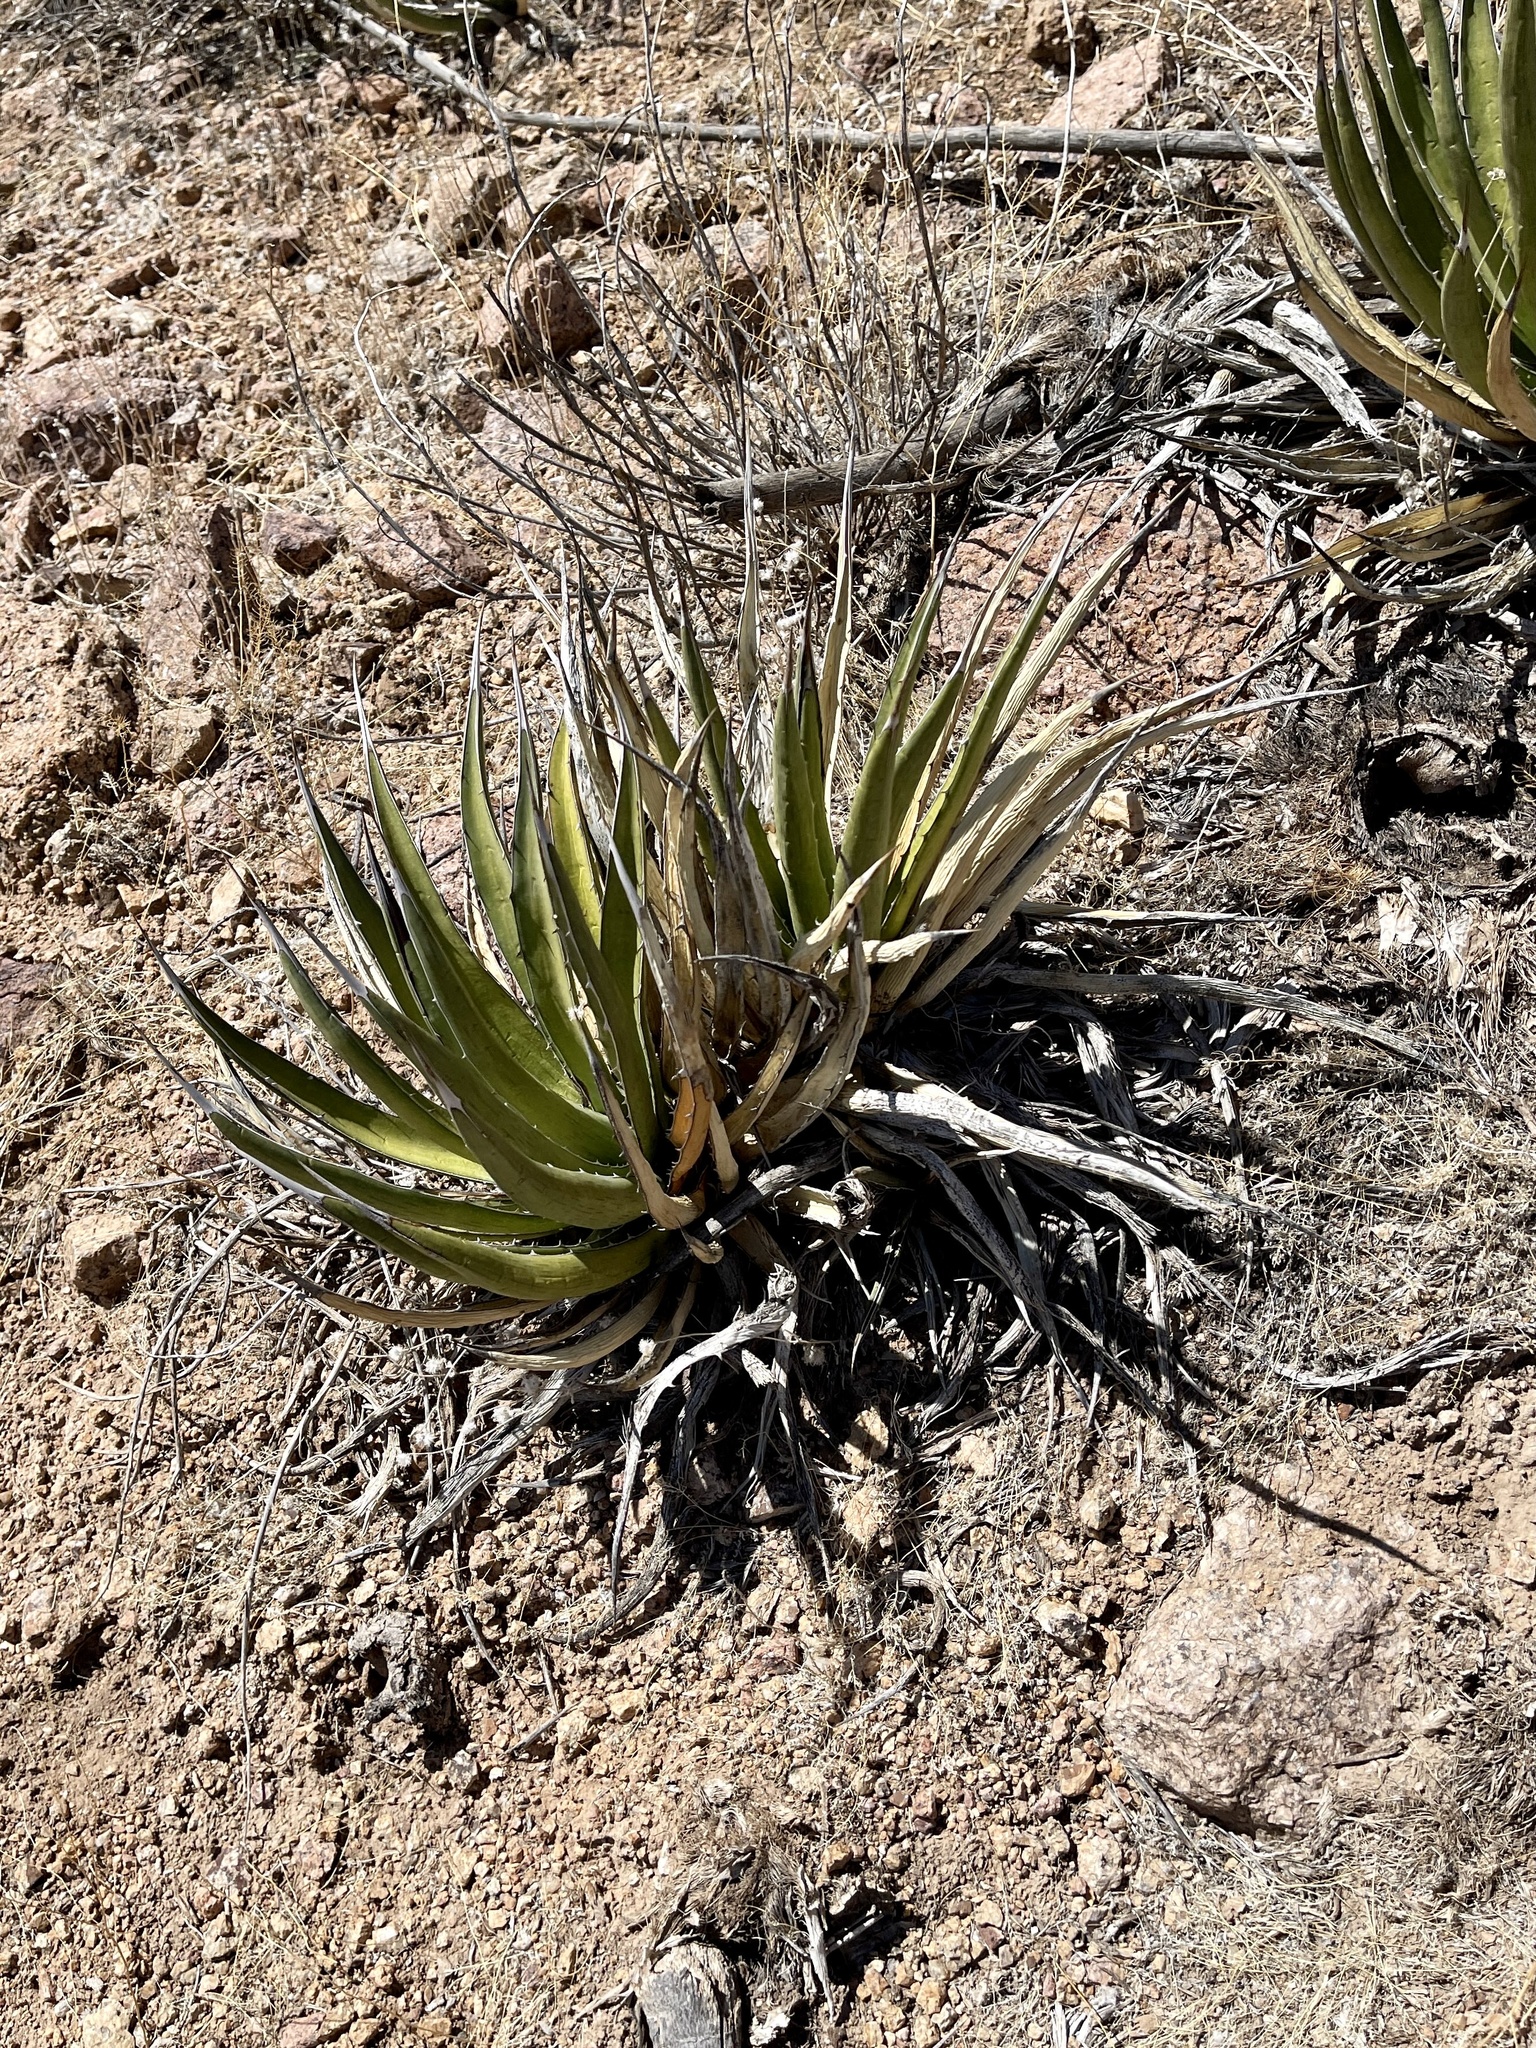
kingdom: Plantae
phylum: Tracheophyta
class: Liliopsida
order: Asparagales
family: Asparagaceae
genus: Agave
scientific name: Agave lechuguilla
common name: Lecheguilla agave
